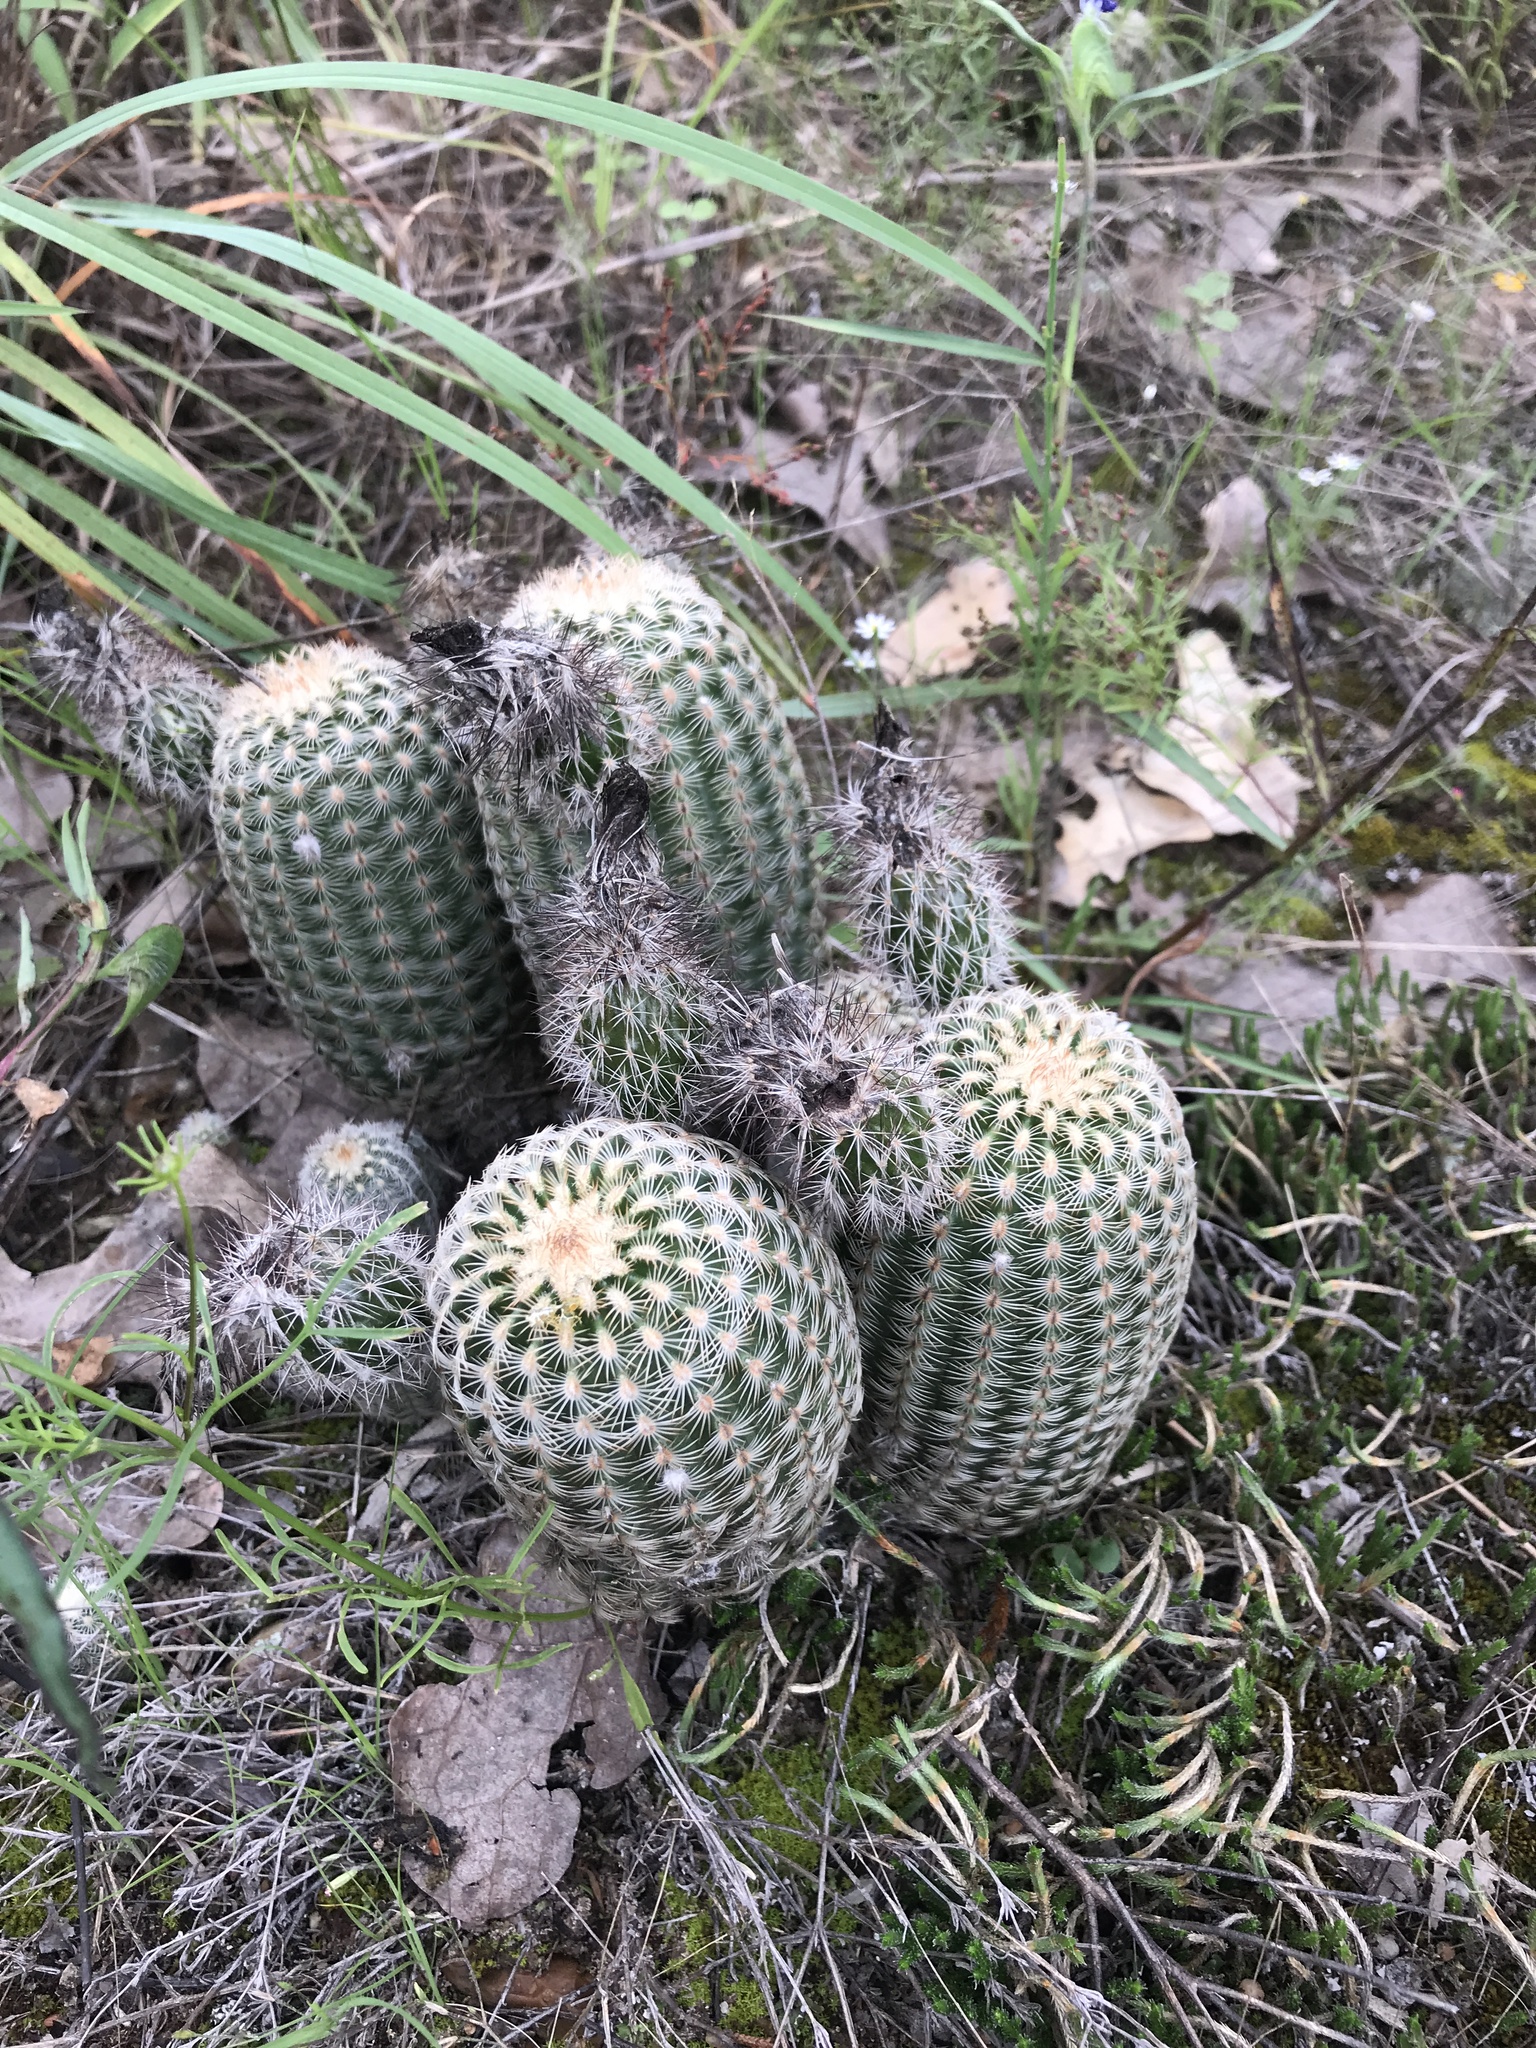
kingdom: Plantae
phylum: Tracheophyta
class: Magnoliopsida
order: Caryophyllales
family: Cactaceae
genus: Echinocereus
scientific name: Echinocereus reichenbachii
